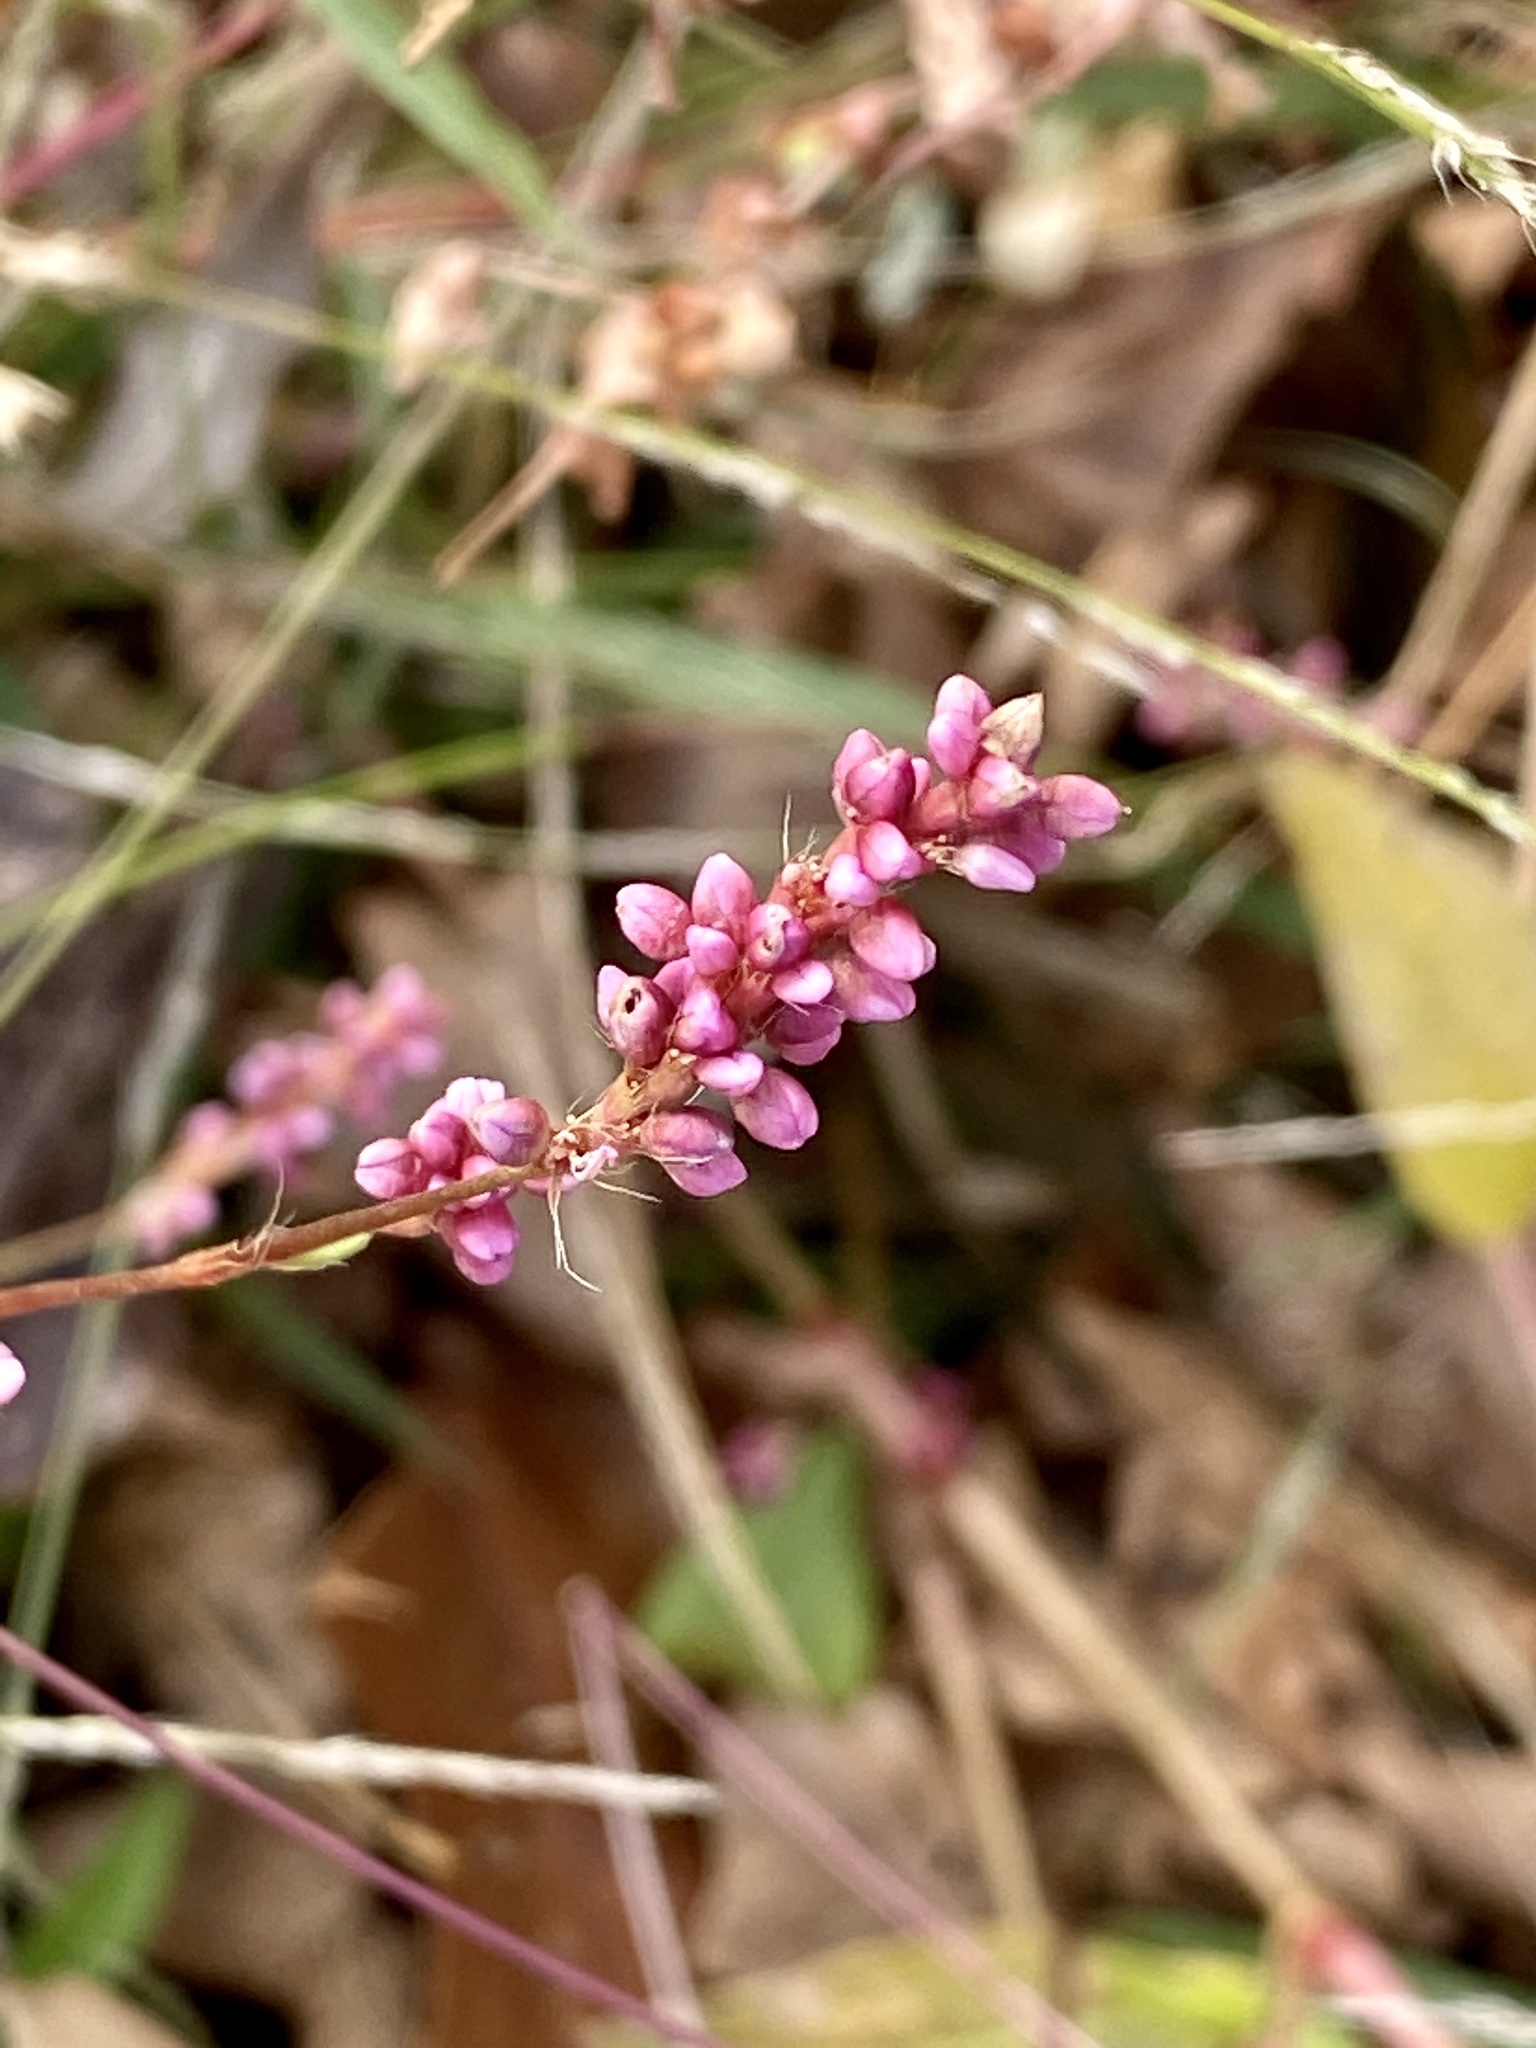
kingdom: Plantae
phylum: Tracheophyta
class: Magnoliopsida
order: Caryophyllales
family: Polygonaceae
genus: Persicaria
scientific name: Persicaria longiseta
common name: Bristly lady's-thumb
